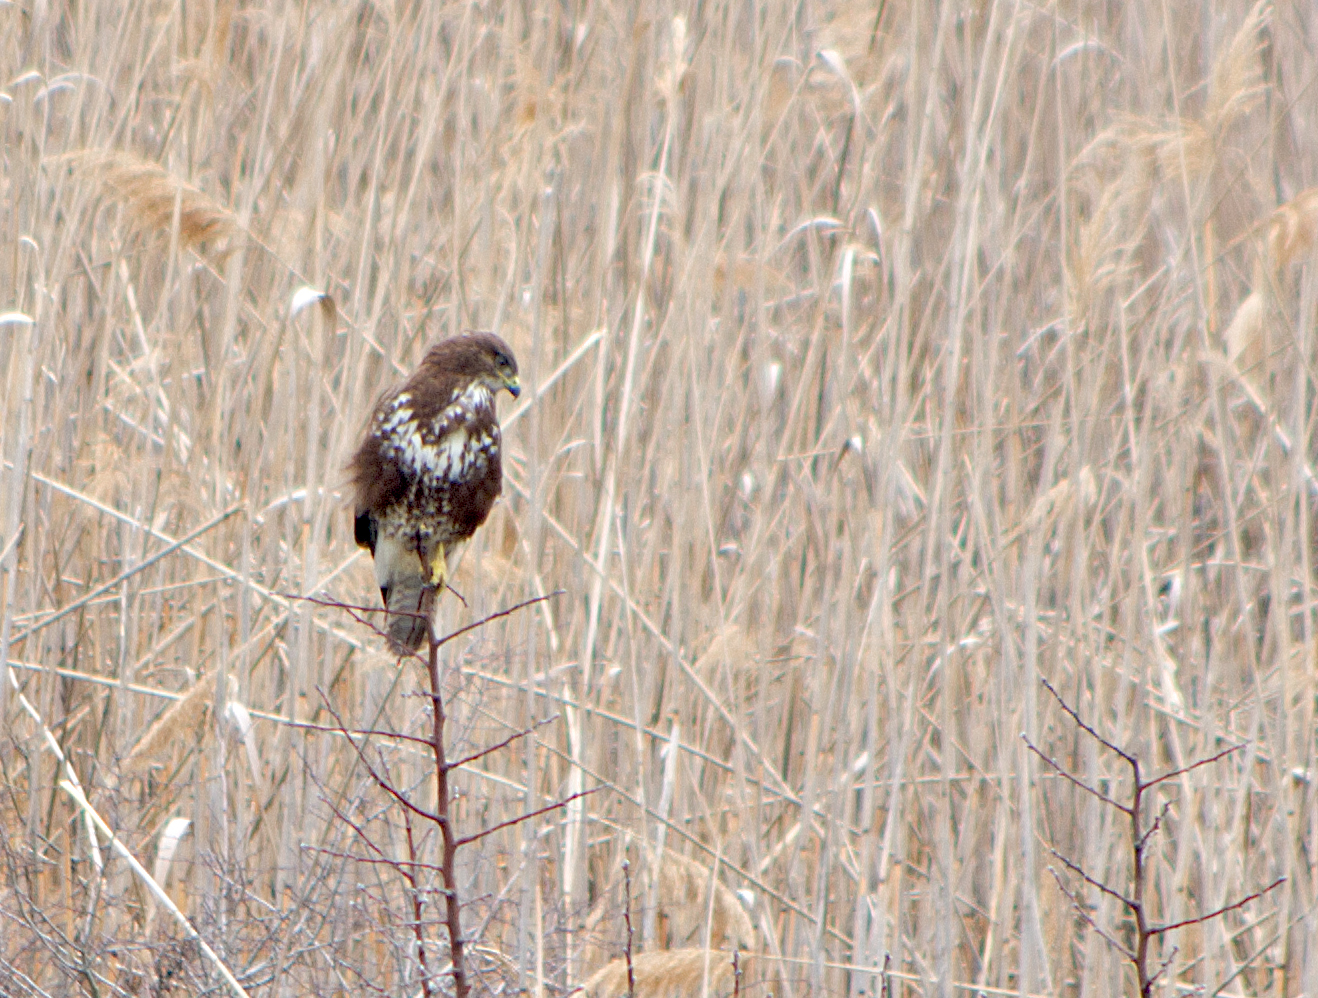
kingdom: Animalia
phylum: Chordata
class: Aves
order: Accipitriformes
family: Accipitridae
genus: Buteo
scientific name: Buteo buteo
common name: Common buzzard
